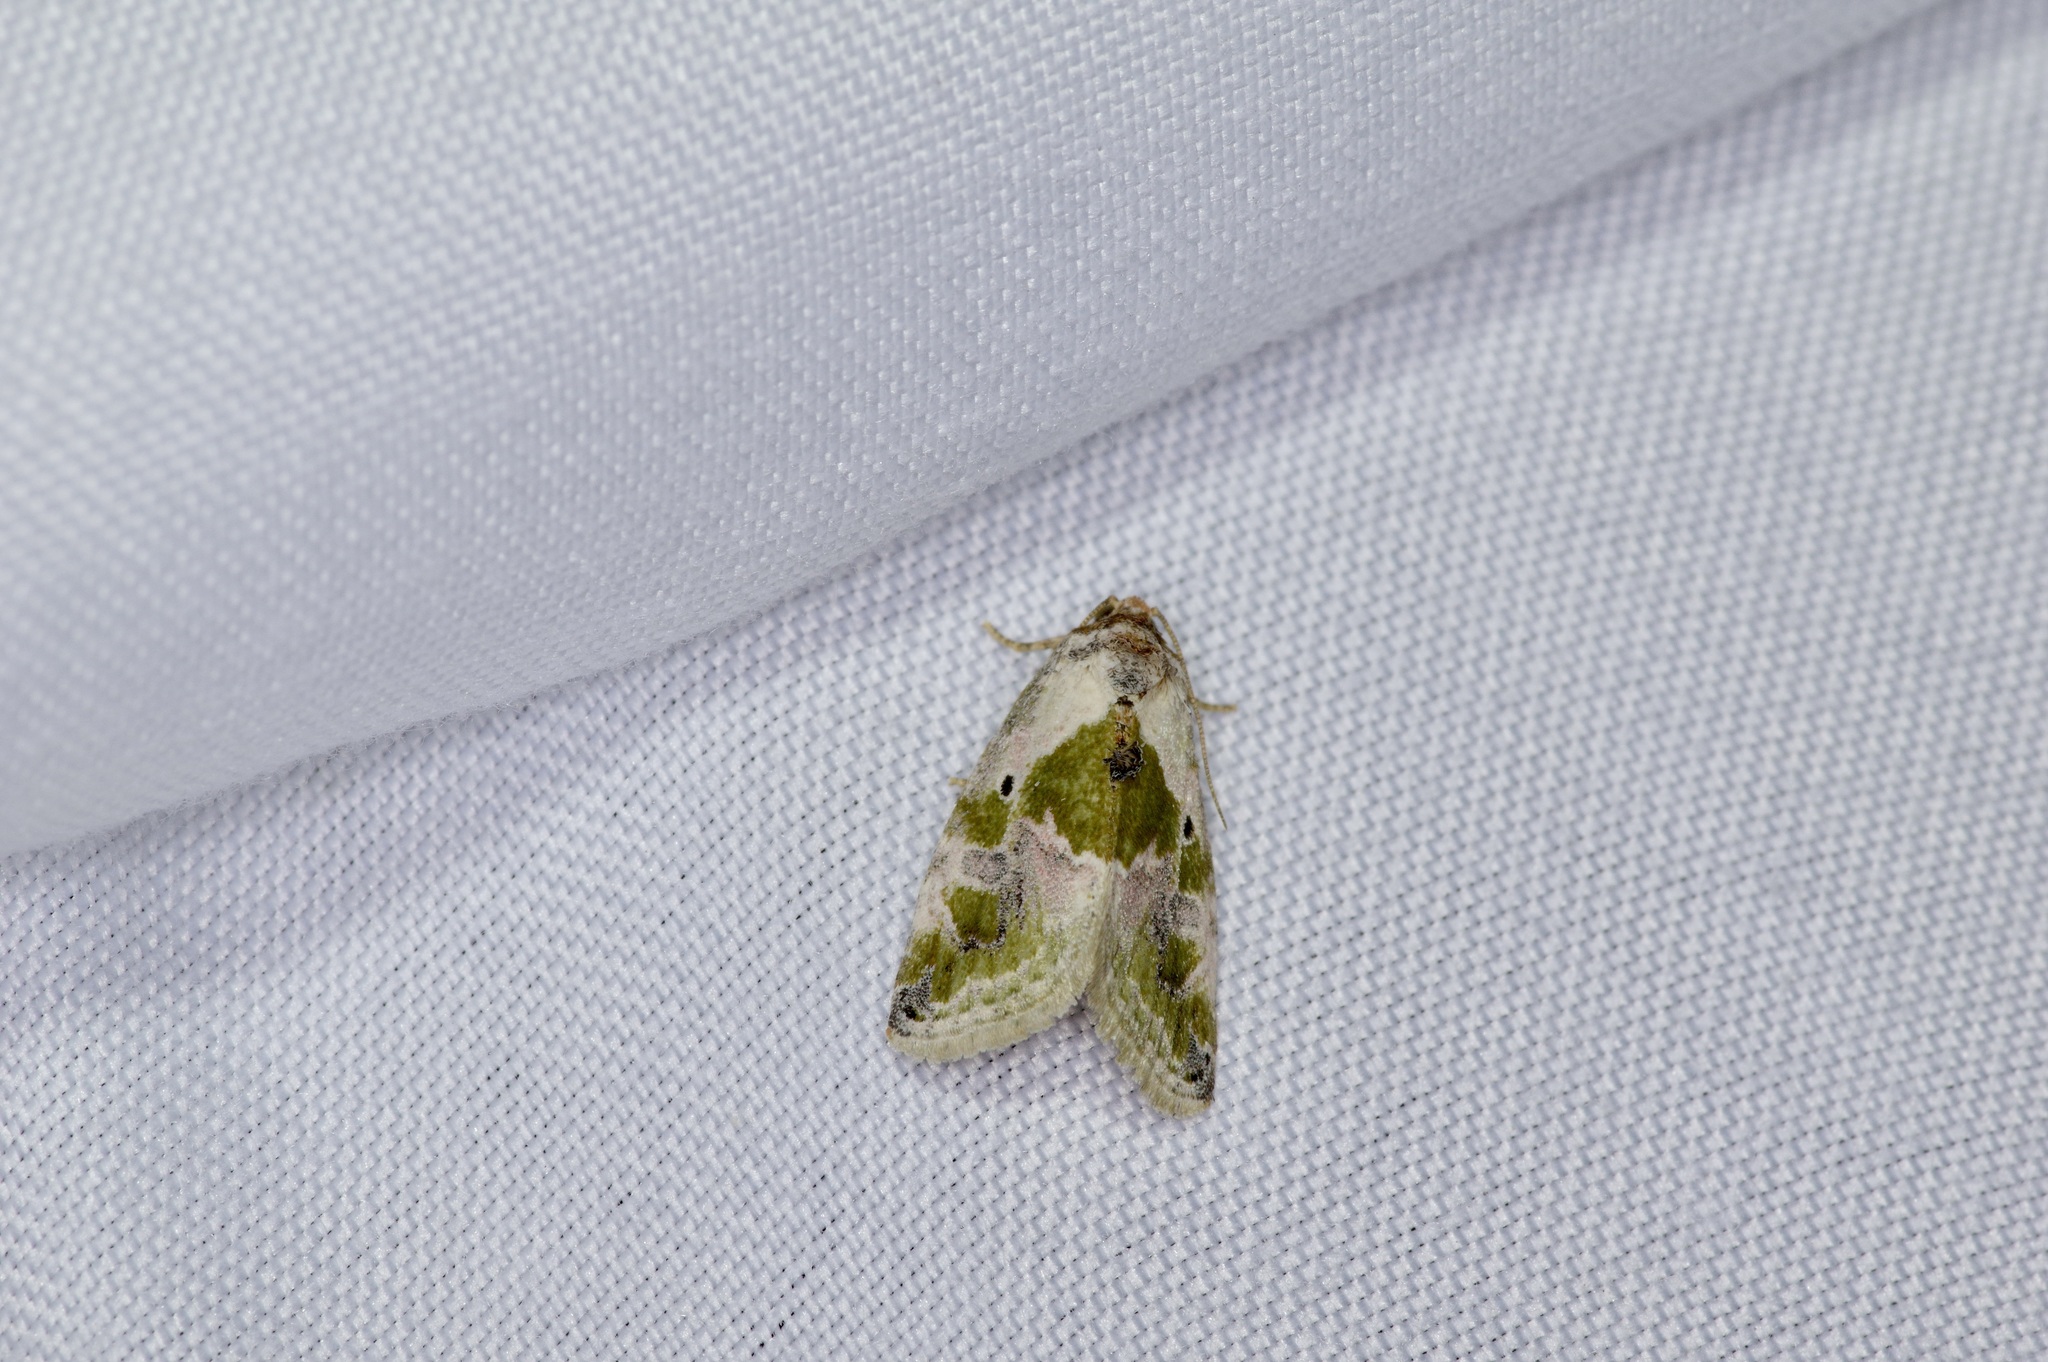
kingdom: Animalia
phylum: Arthropoda
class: Insecta
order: Lepidoptera
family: Noctuidae
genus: Maliattha
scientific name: Maliattha synochitis
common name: Black-dotted glyph
